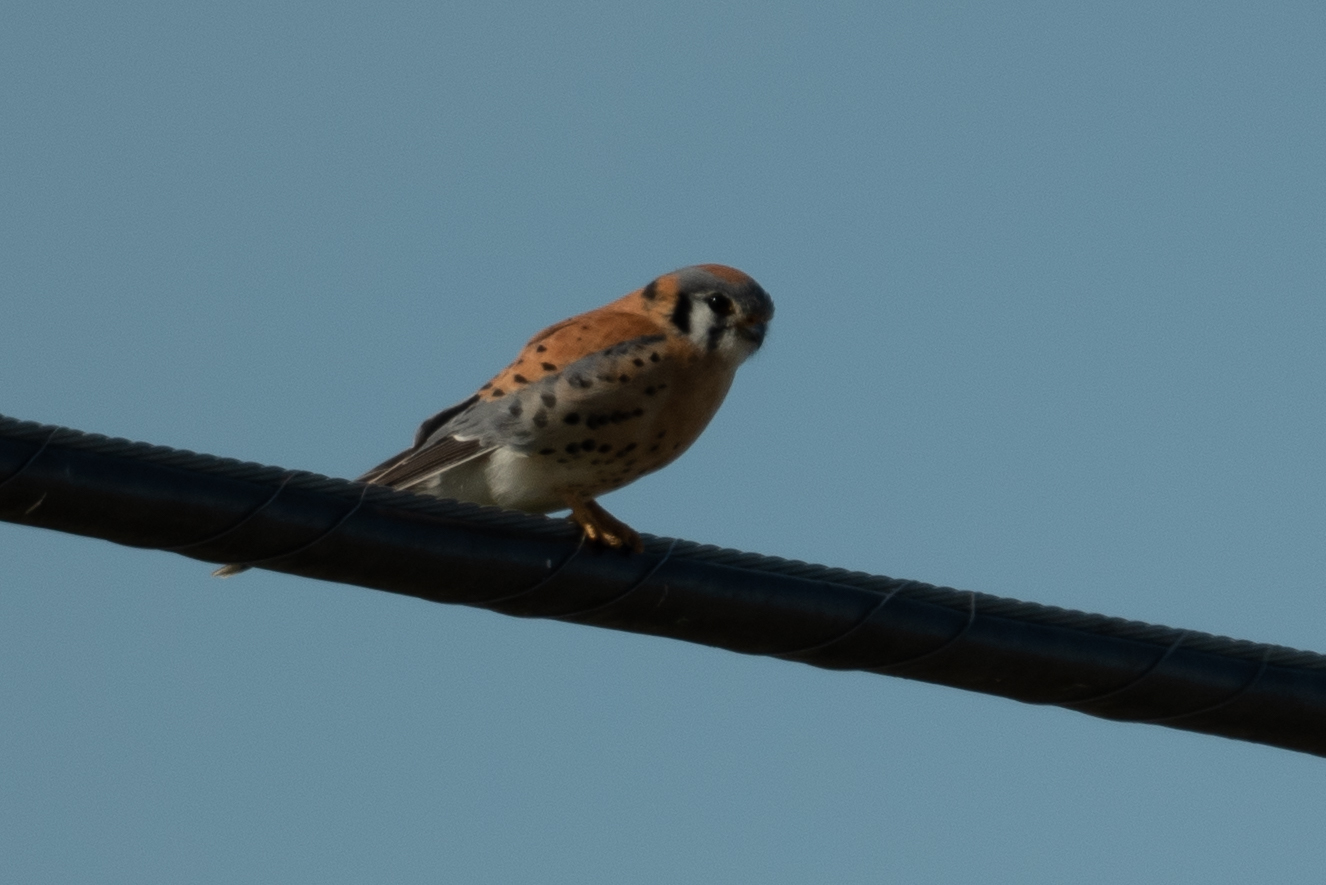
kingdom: Animalia
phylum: Chordata
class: Aves
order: Falconiformes
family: Falconidae
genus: Falco
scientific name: Falco sparverius
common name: American kestrel
